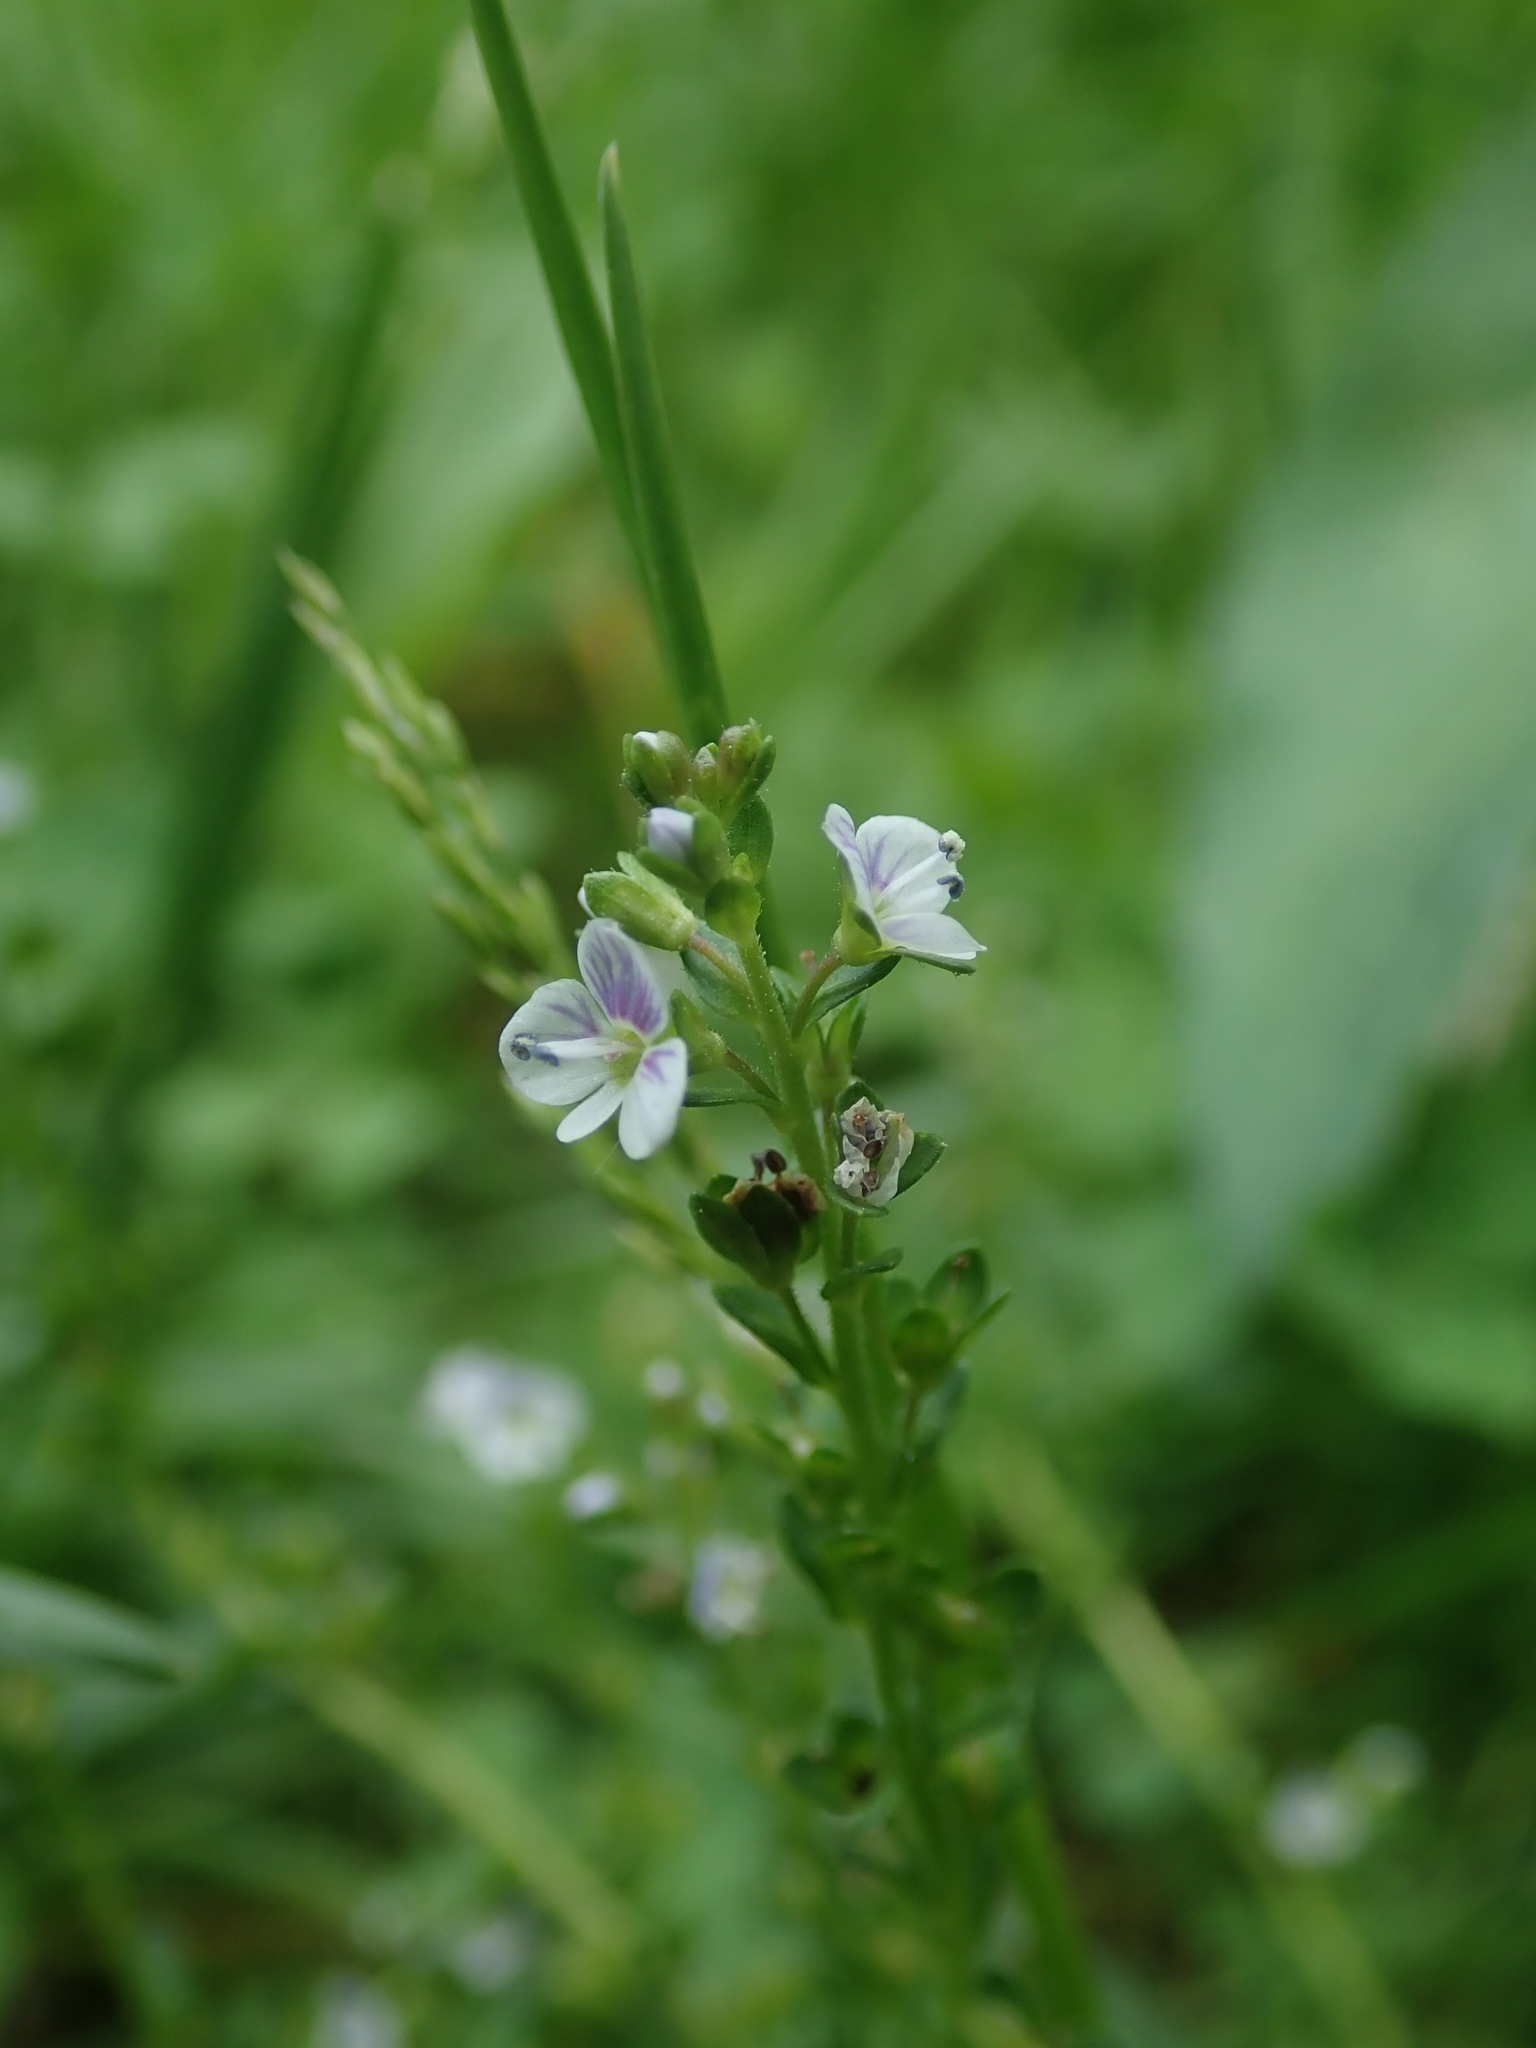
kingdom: Plantae
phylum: Tracheophyta
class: Magnoliopsida
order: Lamiales
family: Plantaginaceae
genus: Veronica
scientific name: Veronica serpyllifolia
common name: Thyme-leaved speedwell
